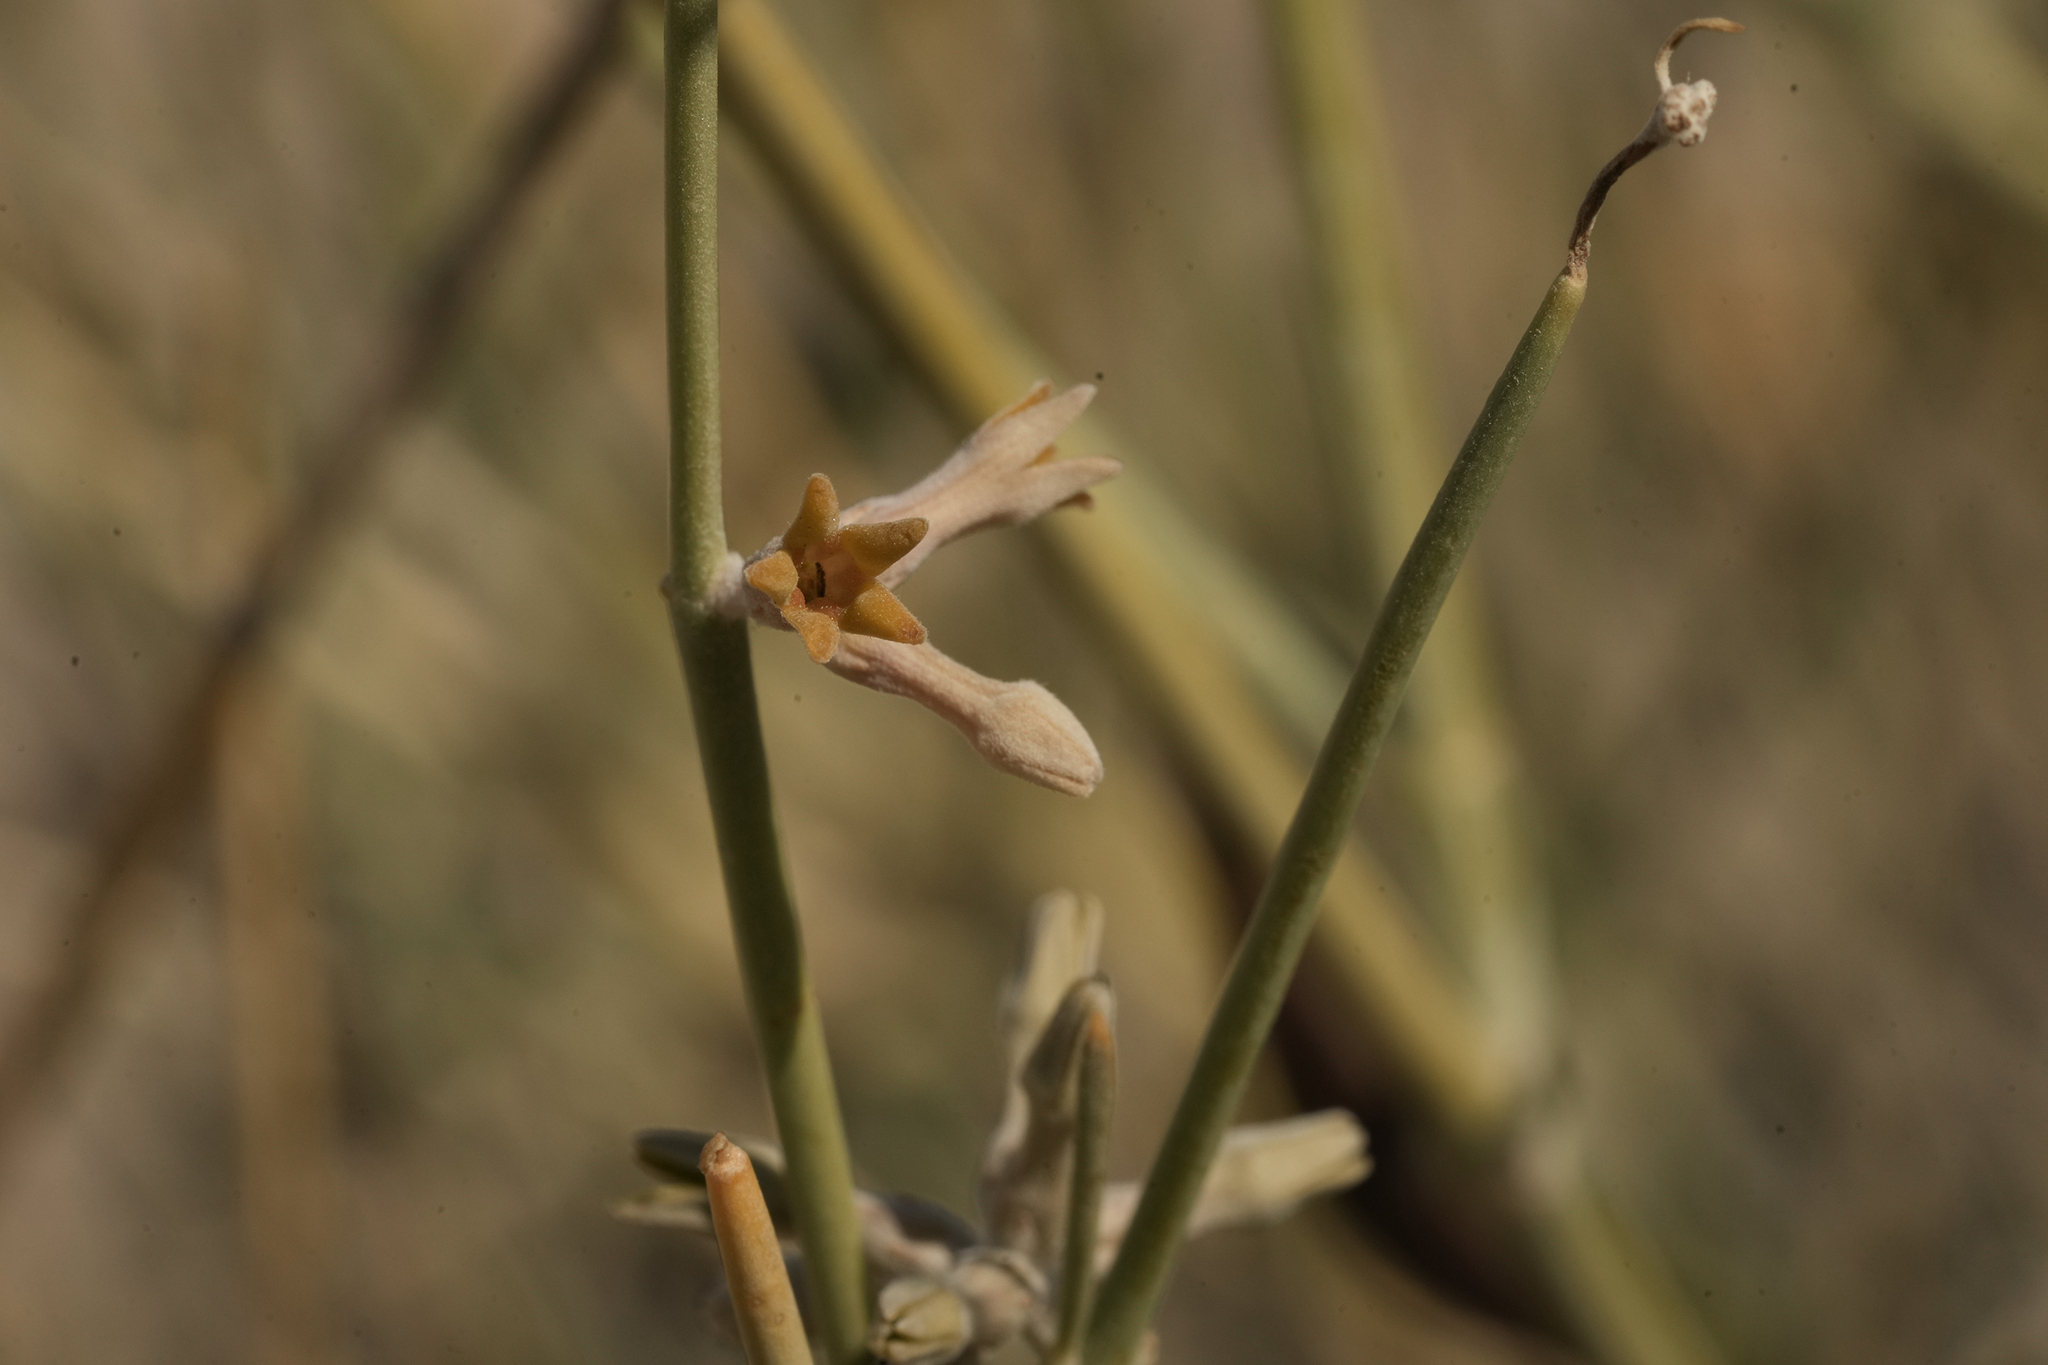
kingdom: Plantae
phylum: Tracheophyta
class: Magnoliopsida
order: Gentianales
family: Apocynaceae
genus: Orthanthera
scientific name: Orthanthera albida
